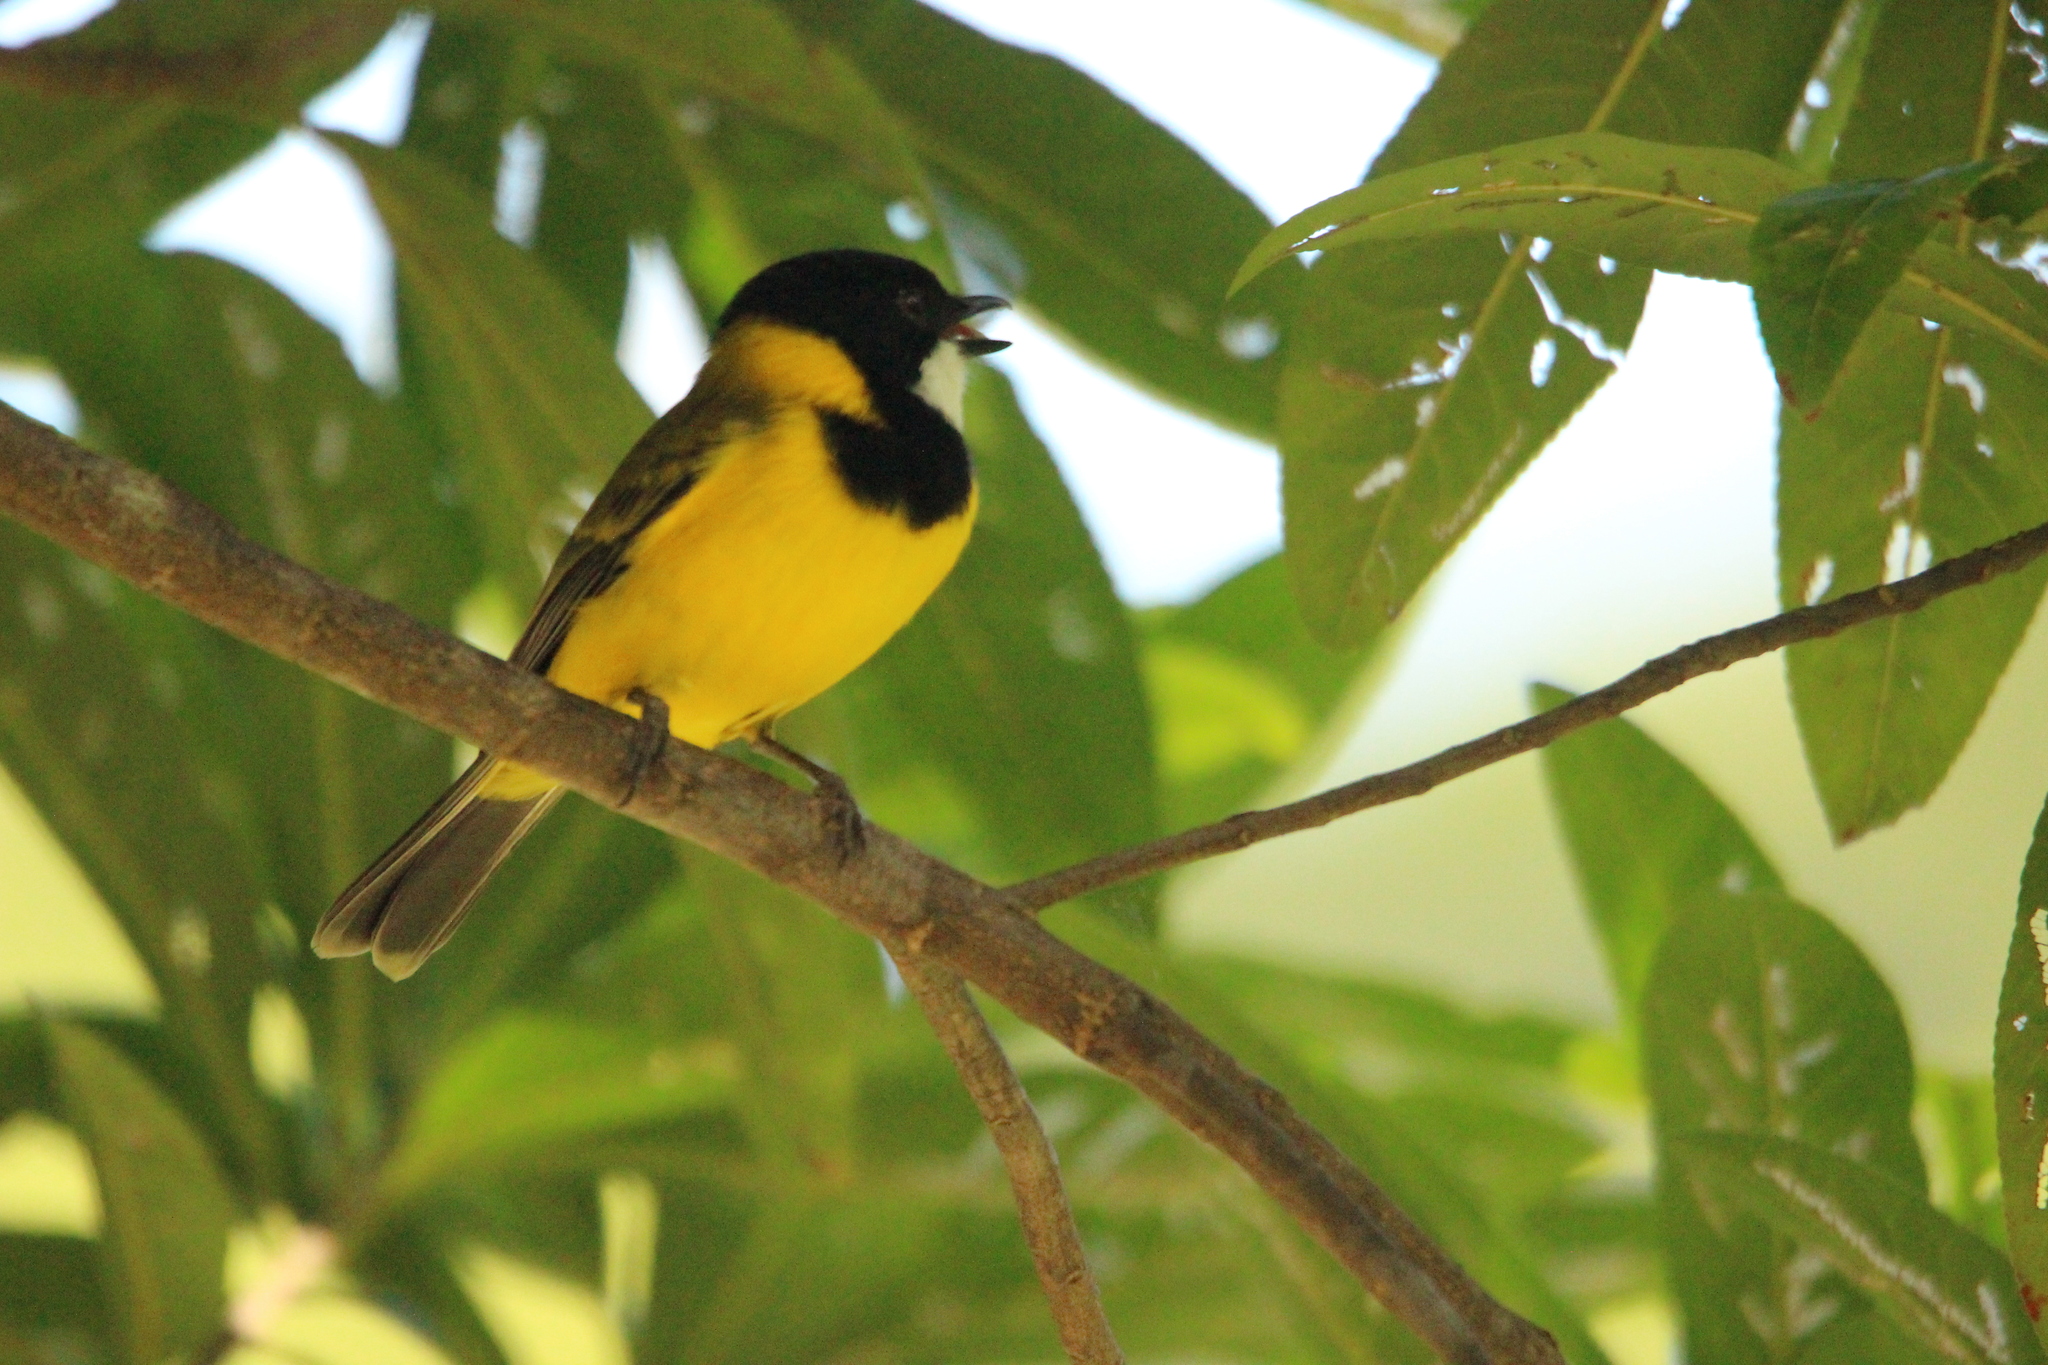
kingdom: Animalia
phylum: Chordata
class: Aves
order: Passeriformes
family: Pachycephalidae
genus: Pachycephala
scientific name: Pachycephala pectoralis
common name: Australian golden whistler
